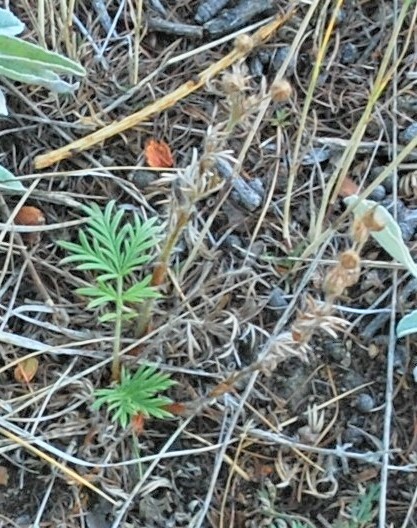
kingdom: Plantae
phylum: Tracheophyta
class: Magnoliopsida
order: Rosales
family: Rosaceae
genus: Potentilla
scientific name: Potentilla tergemina
